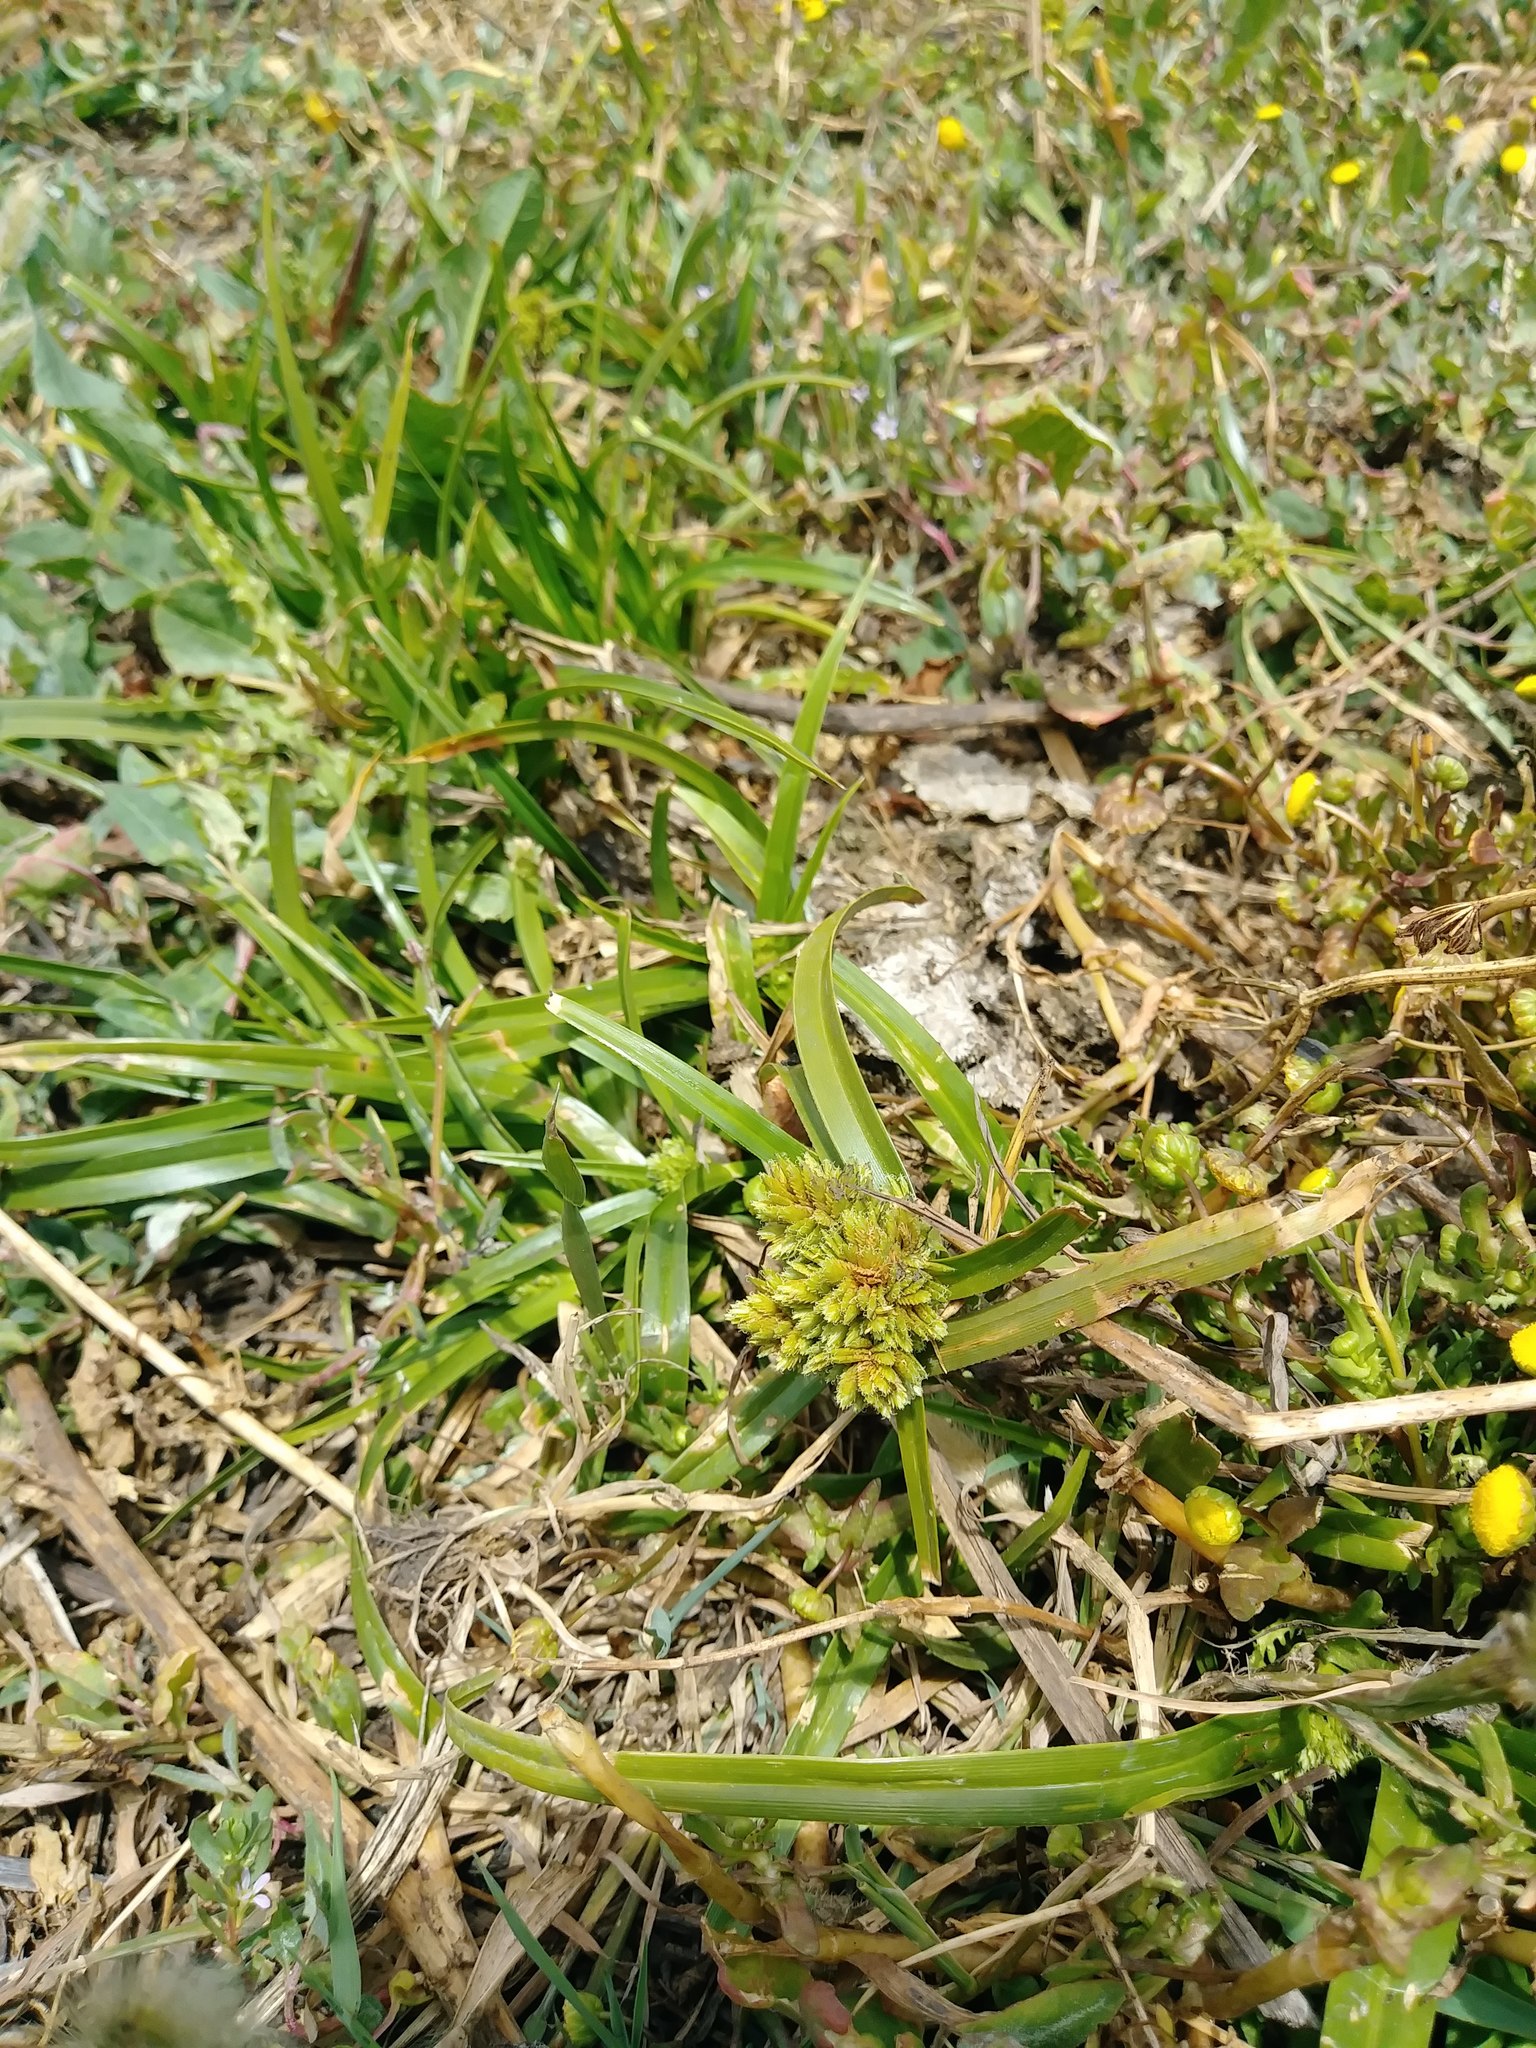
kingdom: Plantae
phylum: Tracheophyta
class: Liliopsida
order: Poales
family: Cyperaceae
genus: Cyperus
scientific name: Cyperus eragrostis
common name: Tall flatsedge
